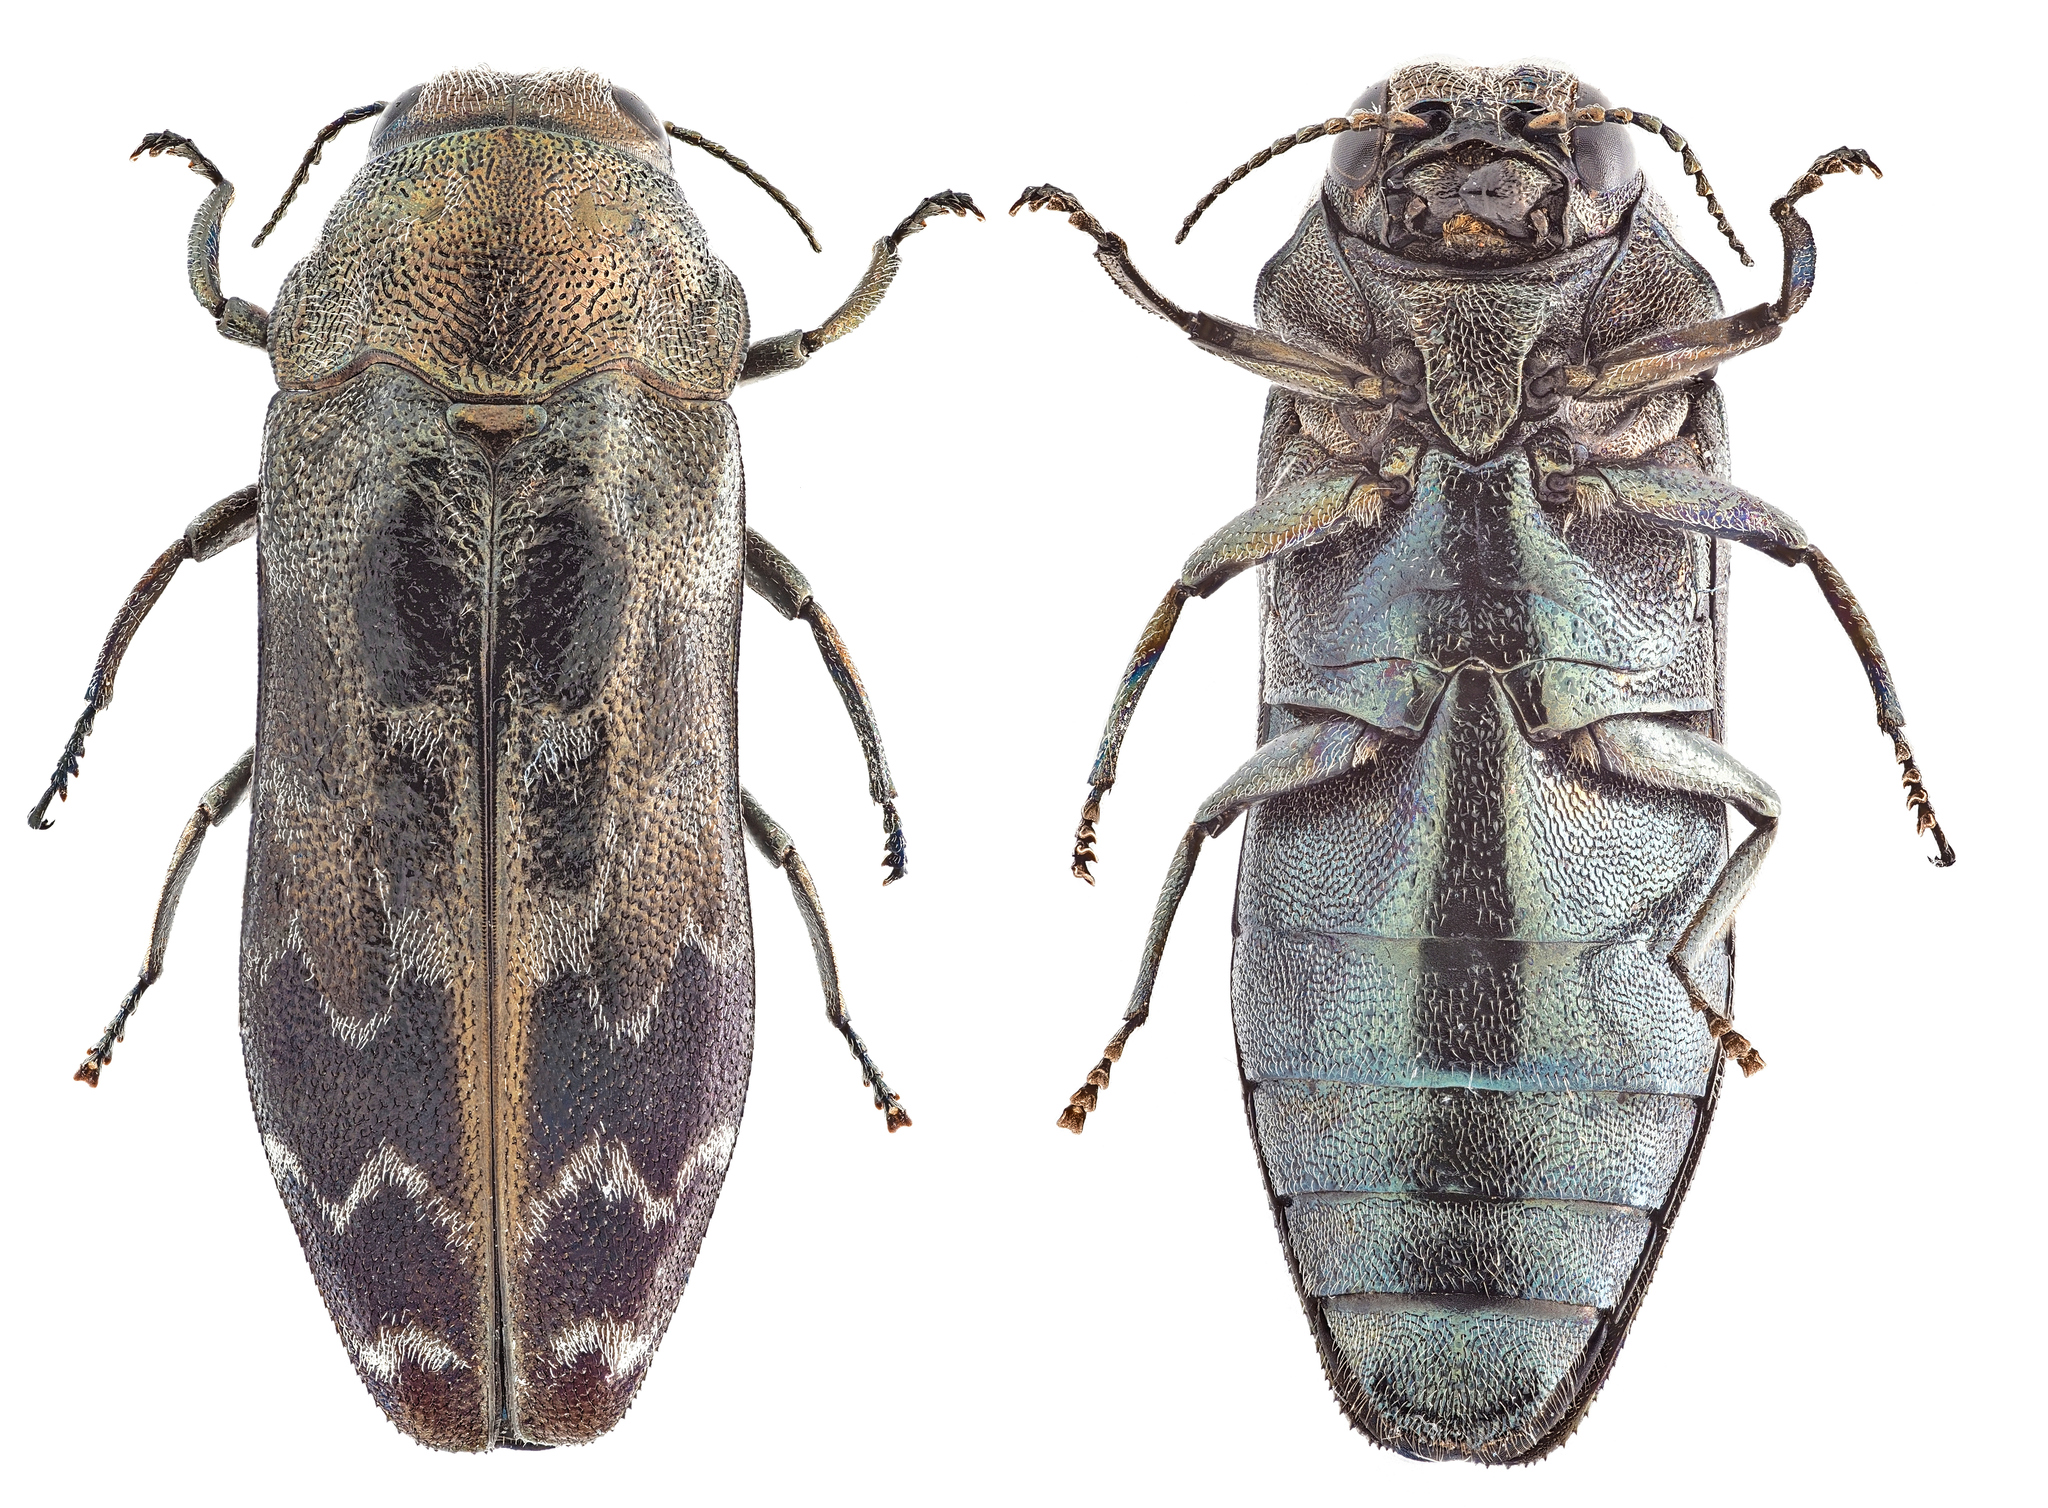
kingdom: Animalia
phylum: Arthropoda
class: Insecta
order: Coleoptera
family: Buprestidae
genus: Coraebus
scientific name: Coraebus undatus
